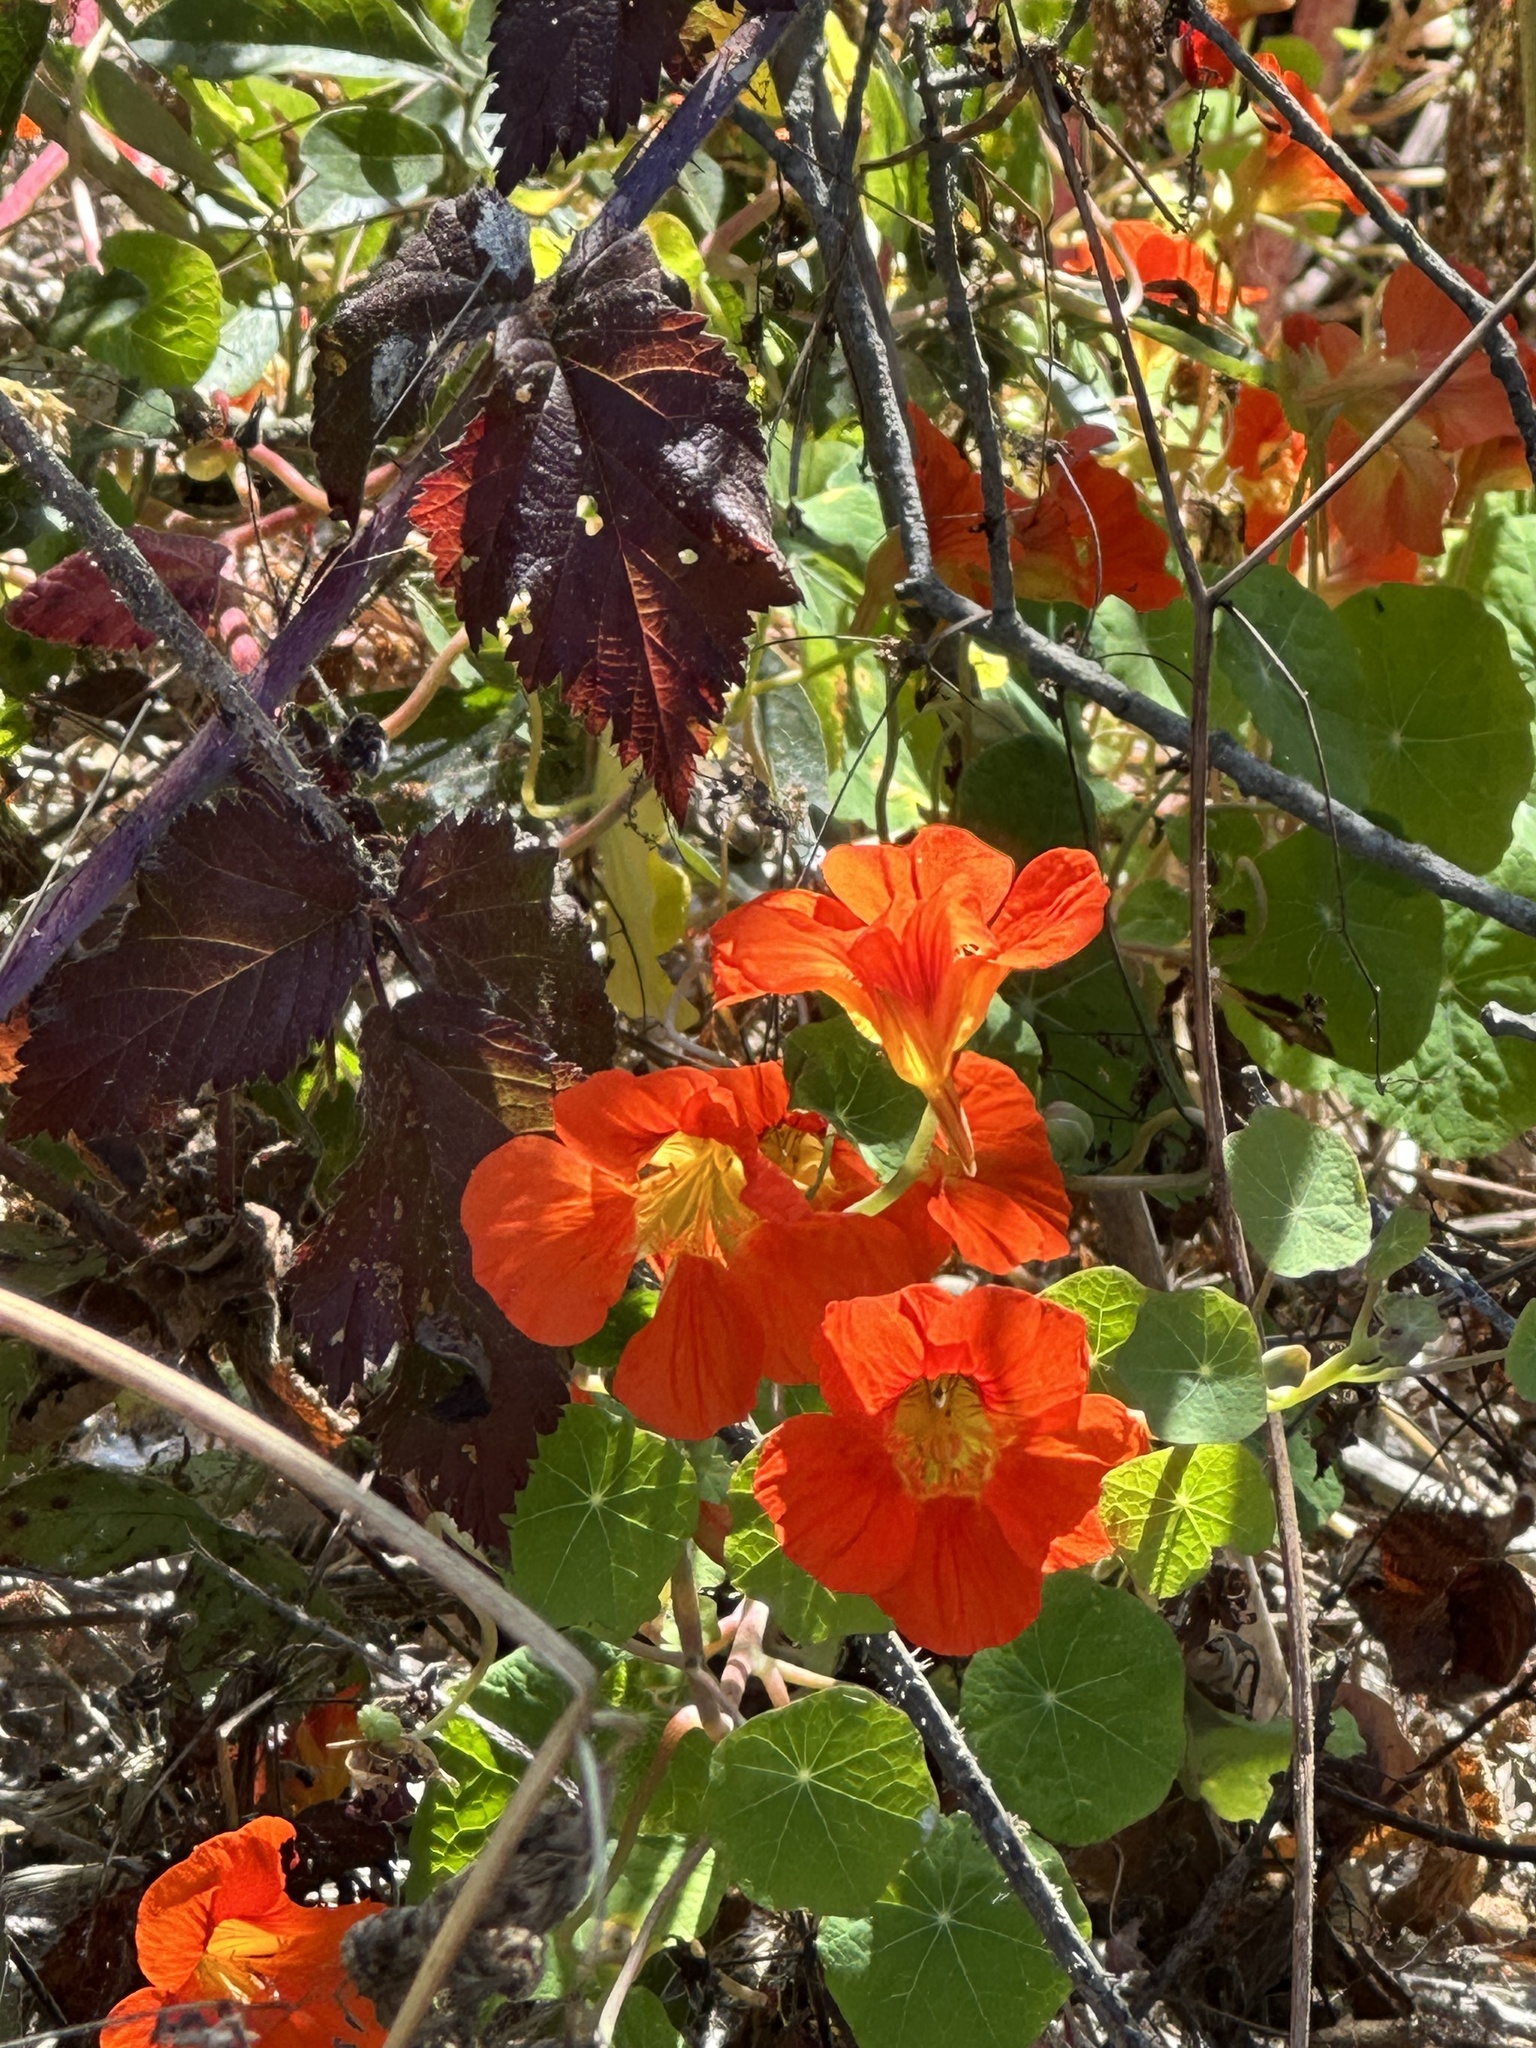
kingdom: Plantae
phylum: Tracheophyta
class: Magnoliopsida
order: Brassicales
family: Tropaeolaceae
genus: Tropaeolum
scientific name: Tropaeolum majus
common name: Nasturtium
